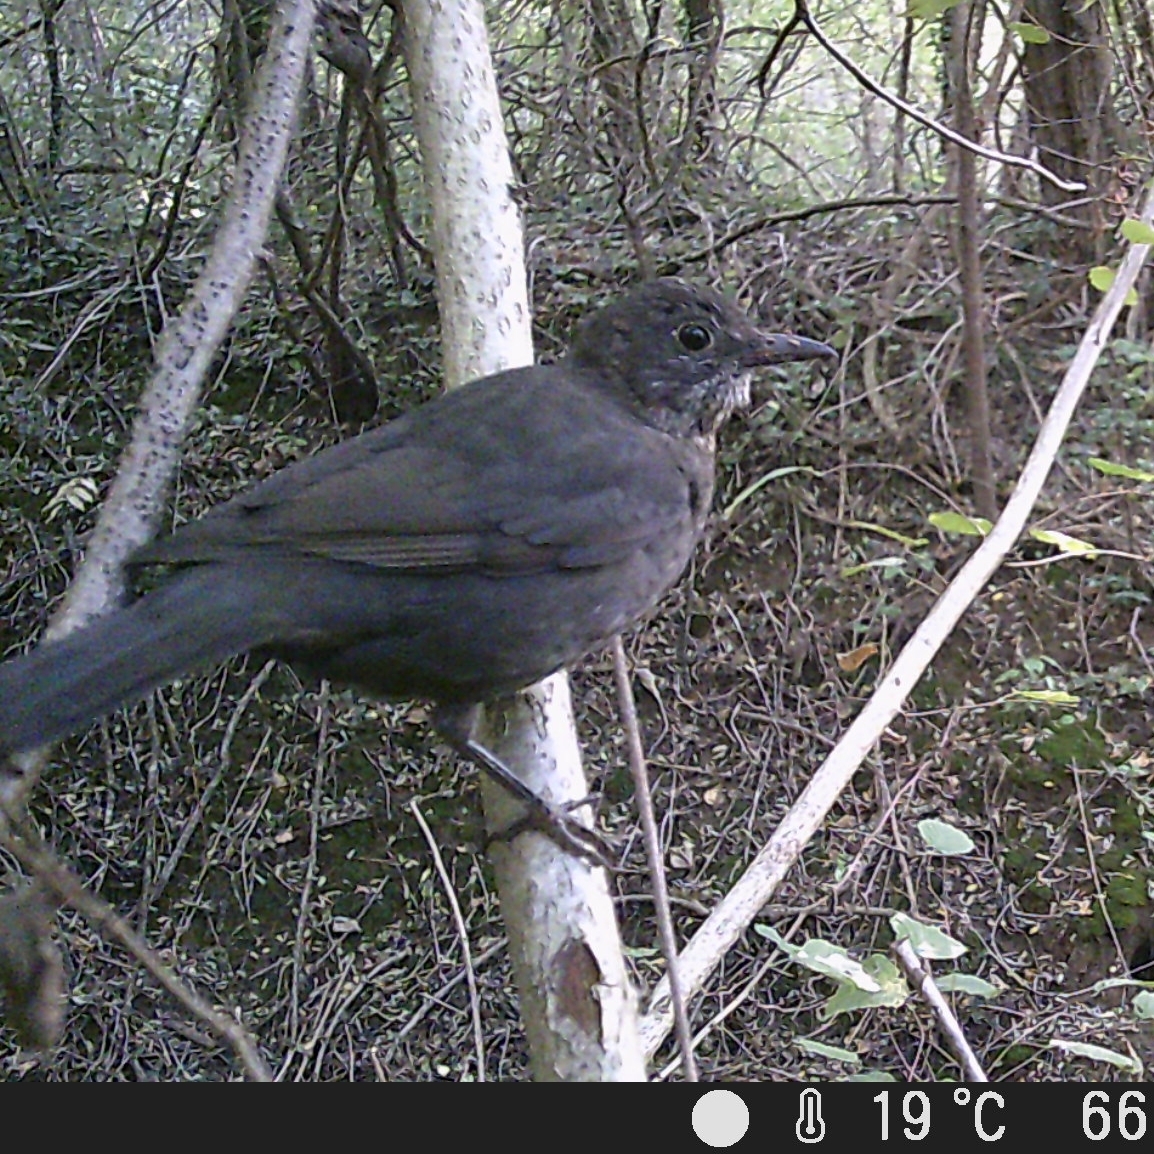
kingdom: Animalia
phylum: Chordata
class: Aves
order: Passeriformes
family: Turdidae
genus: Turdus
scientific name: Turdus merula
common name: Common blackbird
